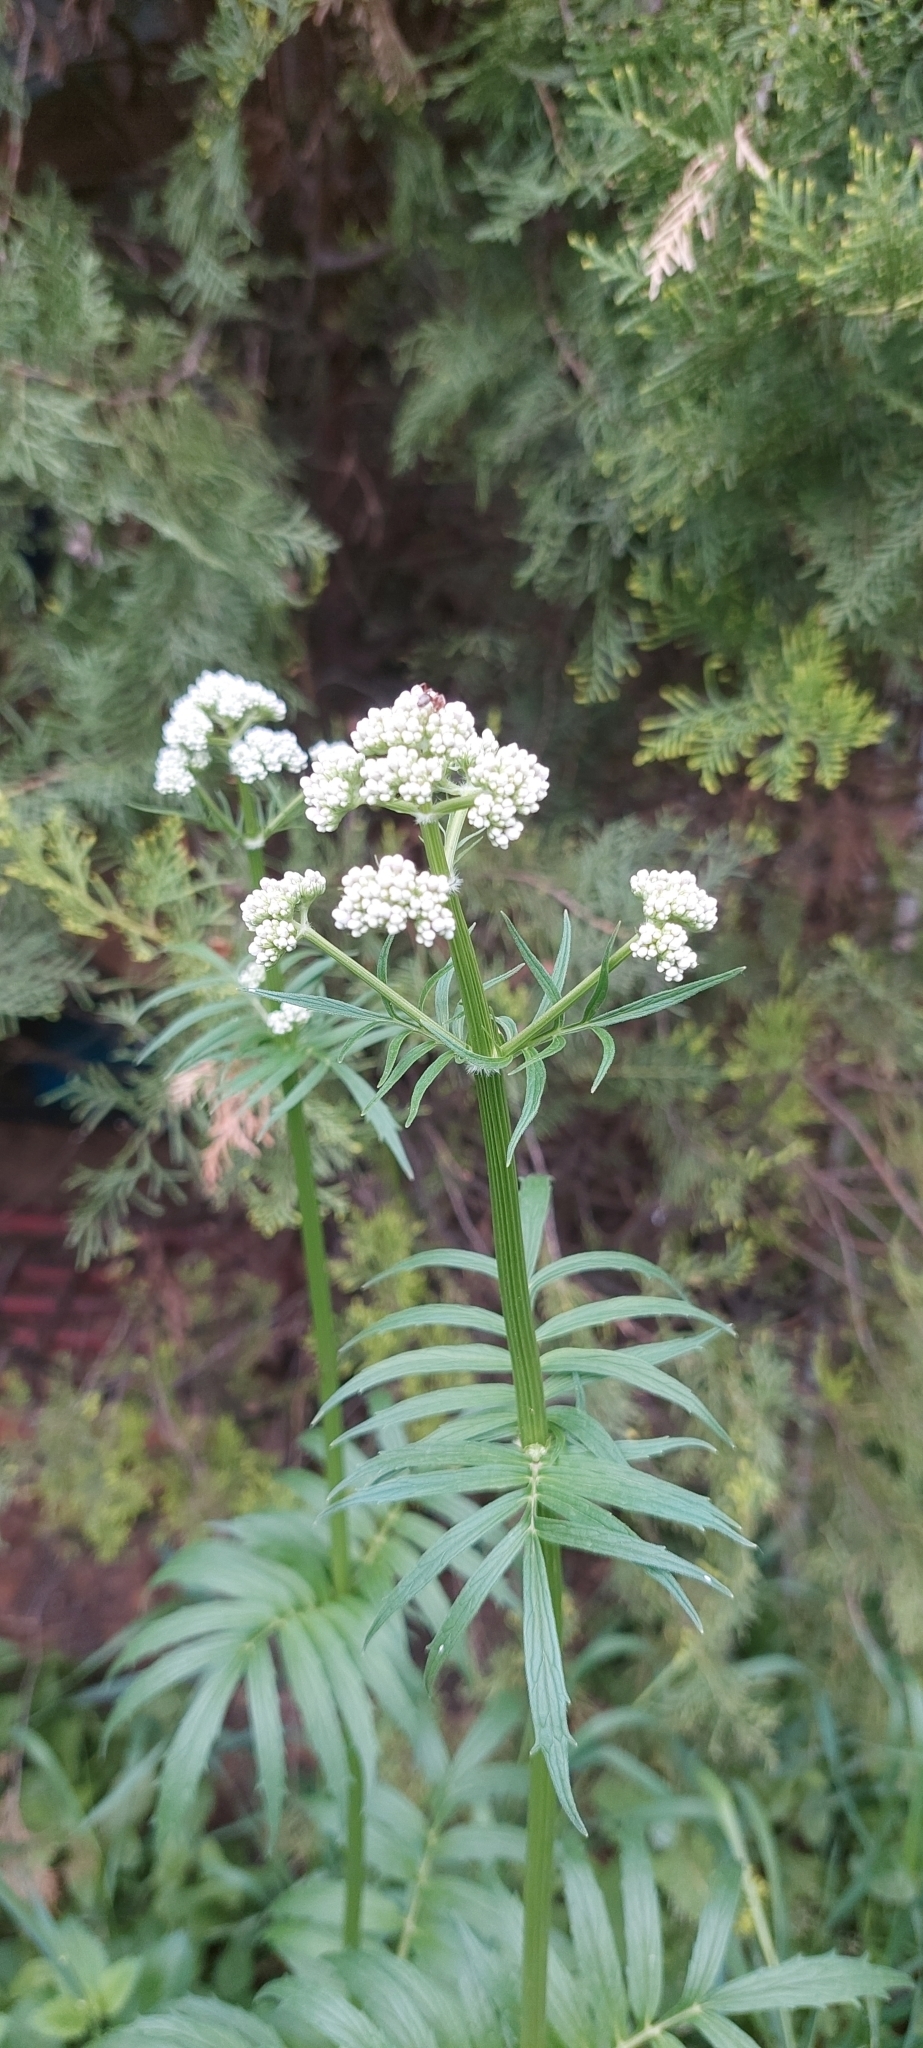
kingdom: Plantae
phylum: Tracheophyta
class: Magnoliopsida
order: Dipsacales
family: Caprifoliaceae
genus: Valeriana
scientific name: Valeriana officinalis
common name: Common valerian
